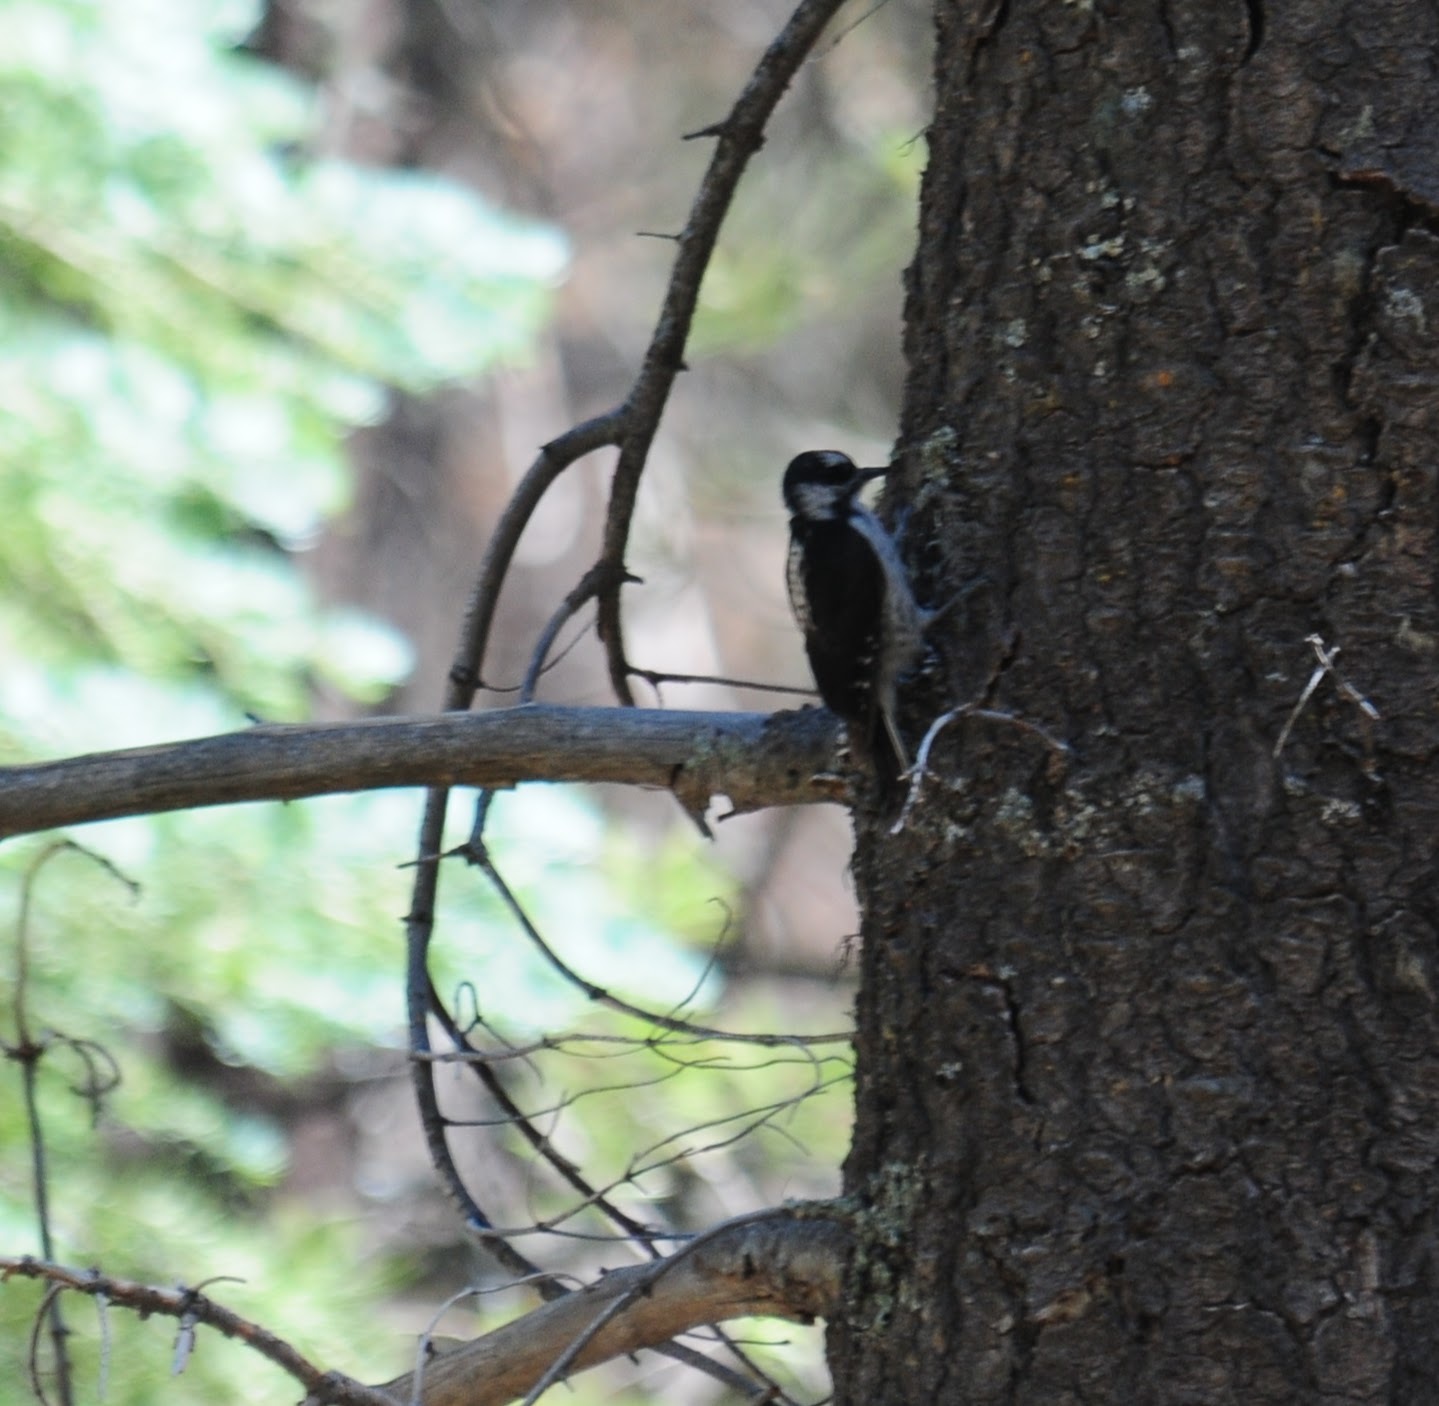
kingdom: Animalia
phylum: Chordata
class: Aves
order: Piciformes
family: Picidae
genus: Leuconotopicus
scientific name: Leuconotopicus villosus
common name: Hairy woodpecker
